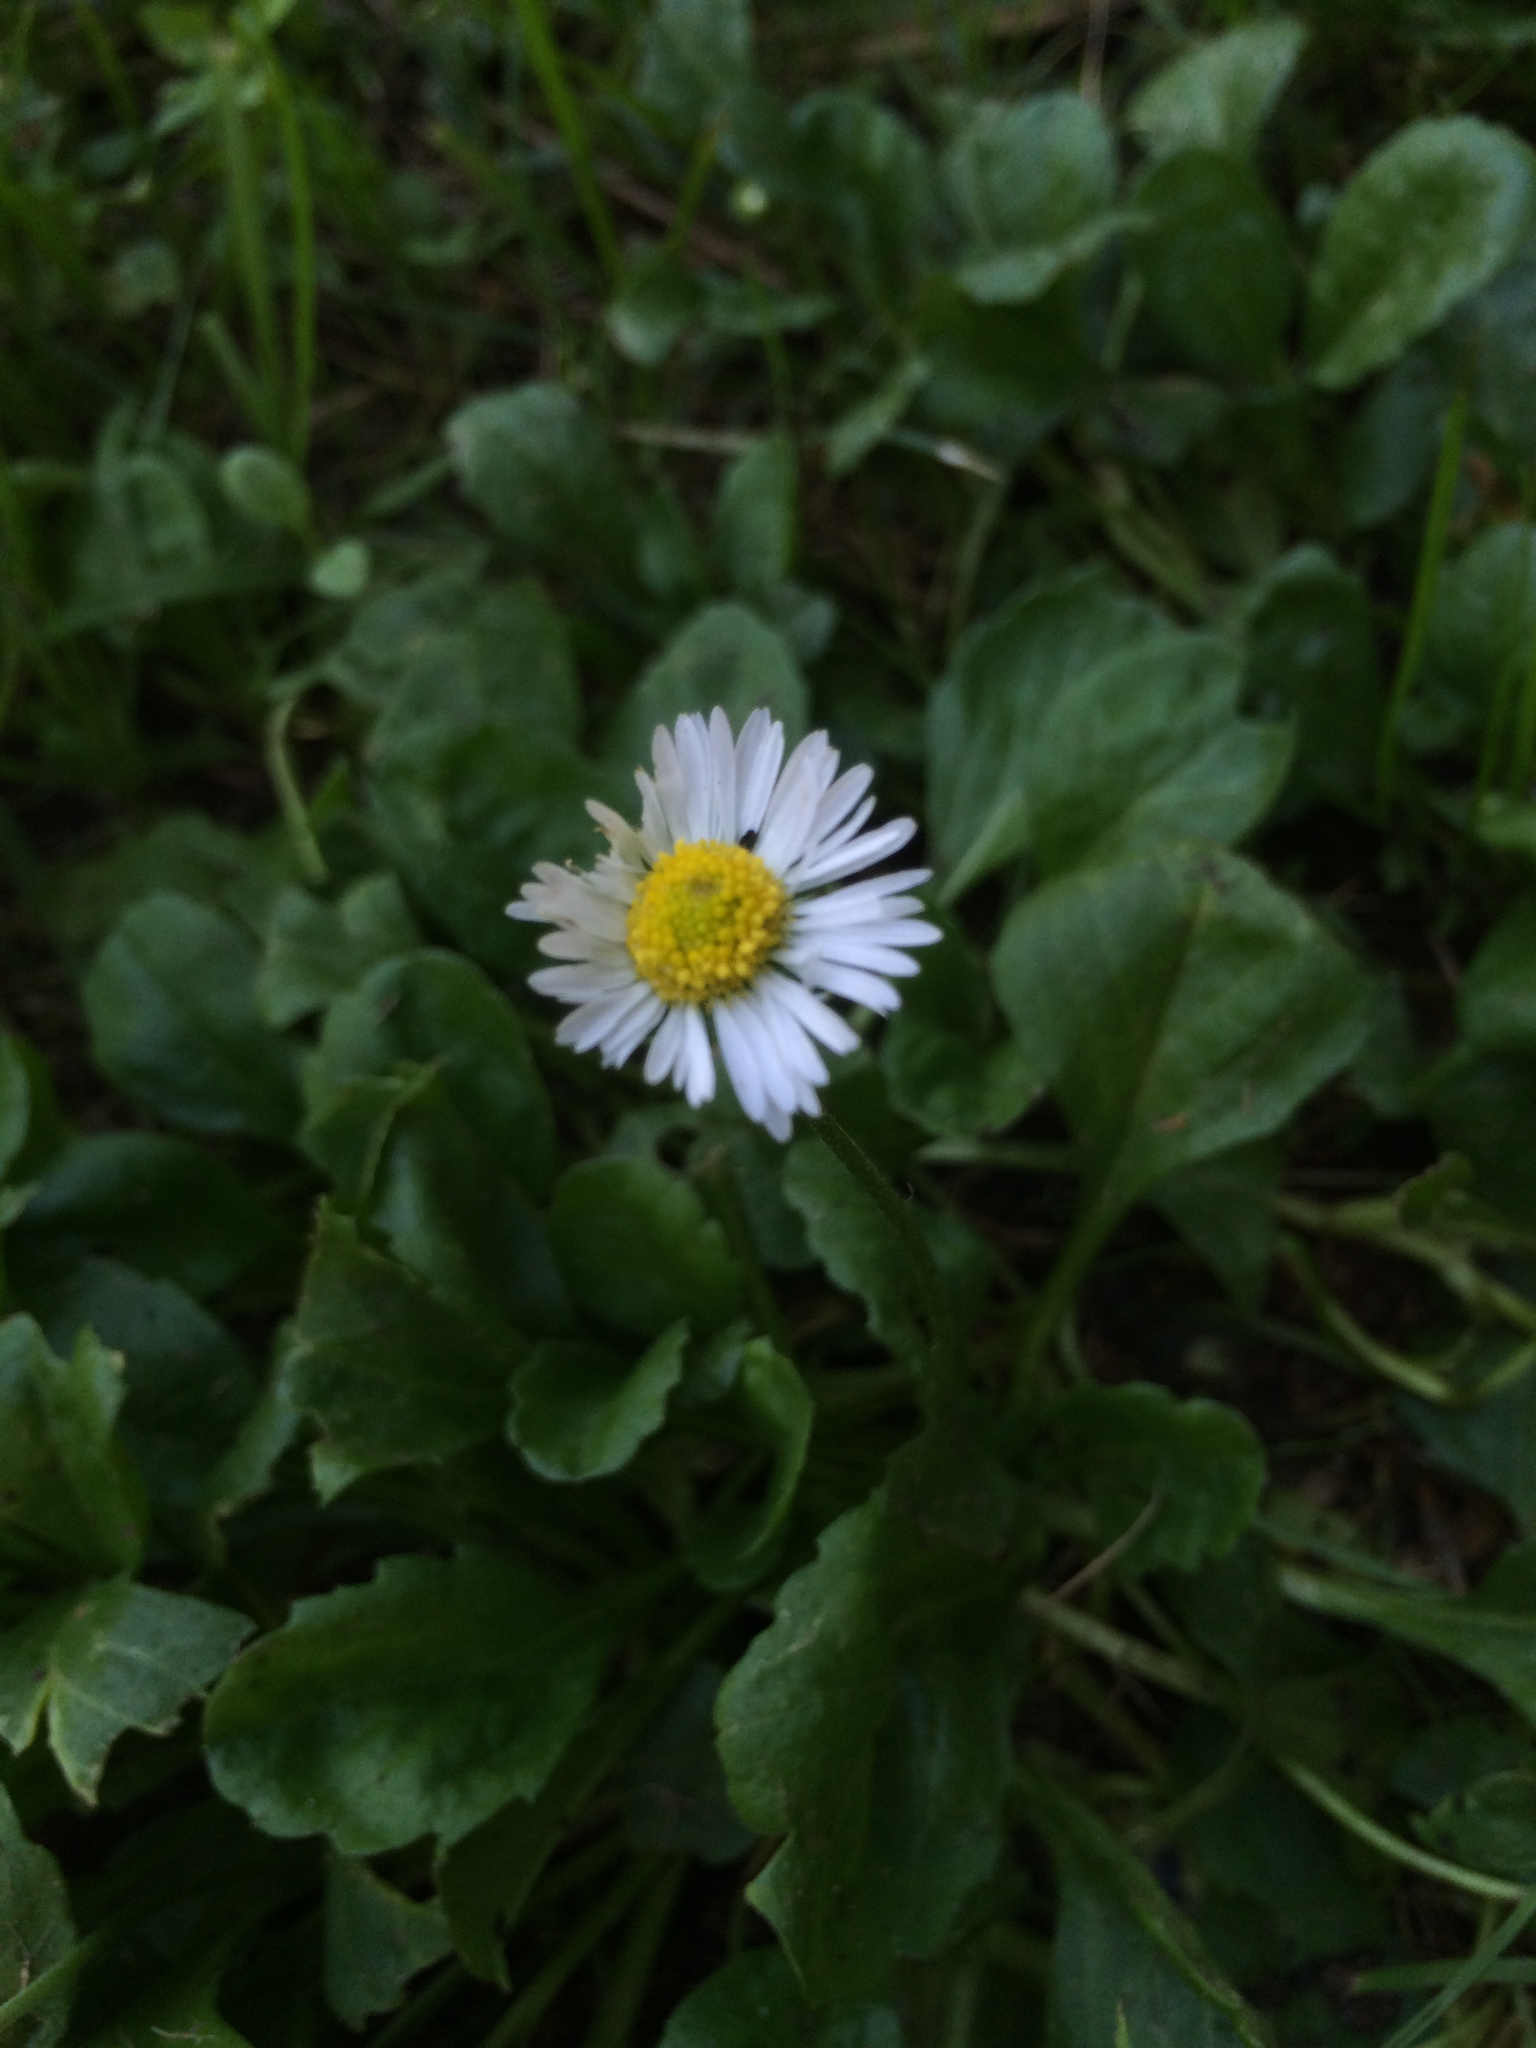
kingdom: Plantae
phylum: Tracheophyta
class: Magnoliopsida
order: Asterales
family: Asteraceae
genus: Bellis
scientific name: Bellis perennis
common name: Lawndaisy
